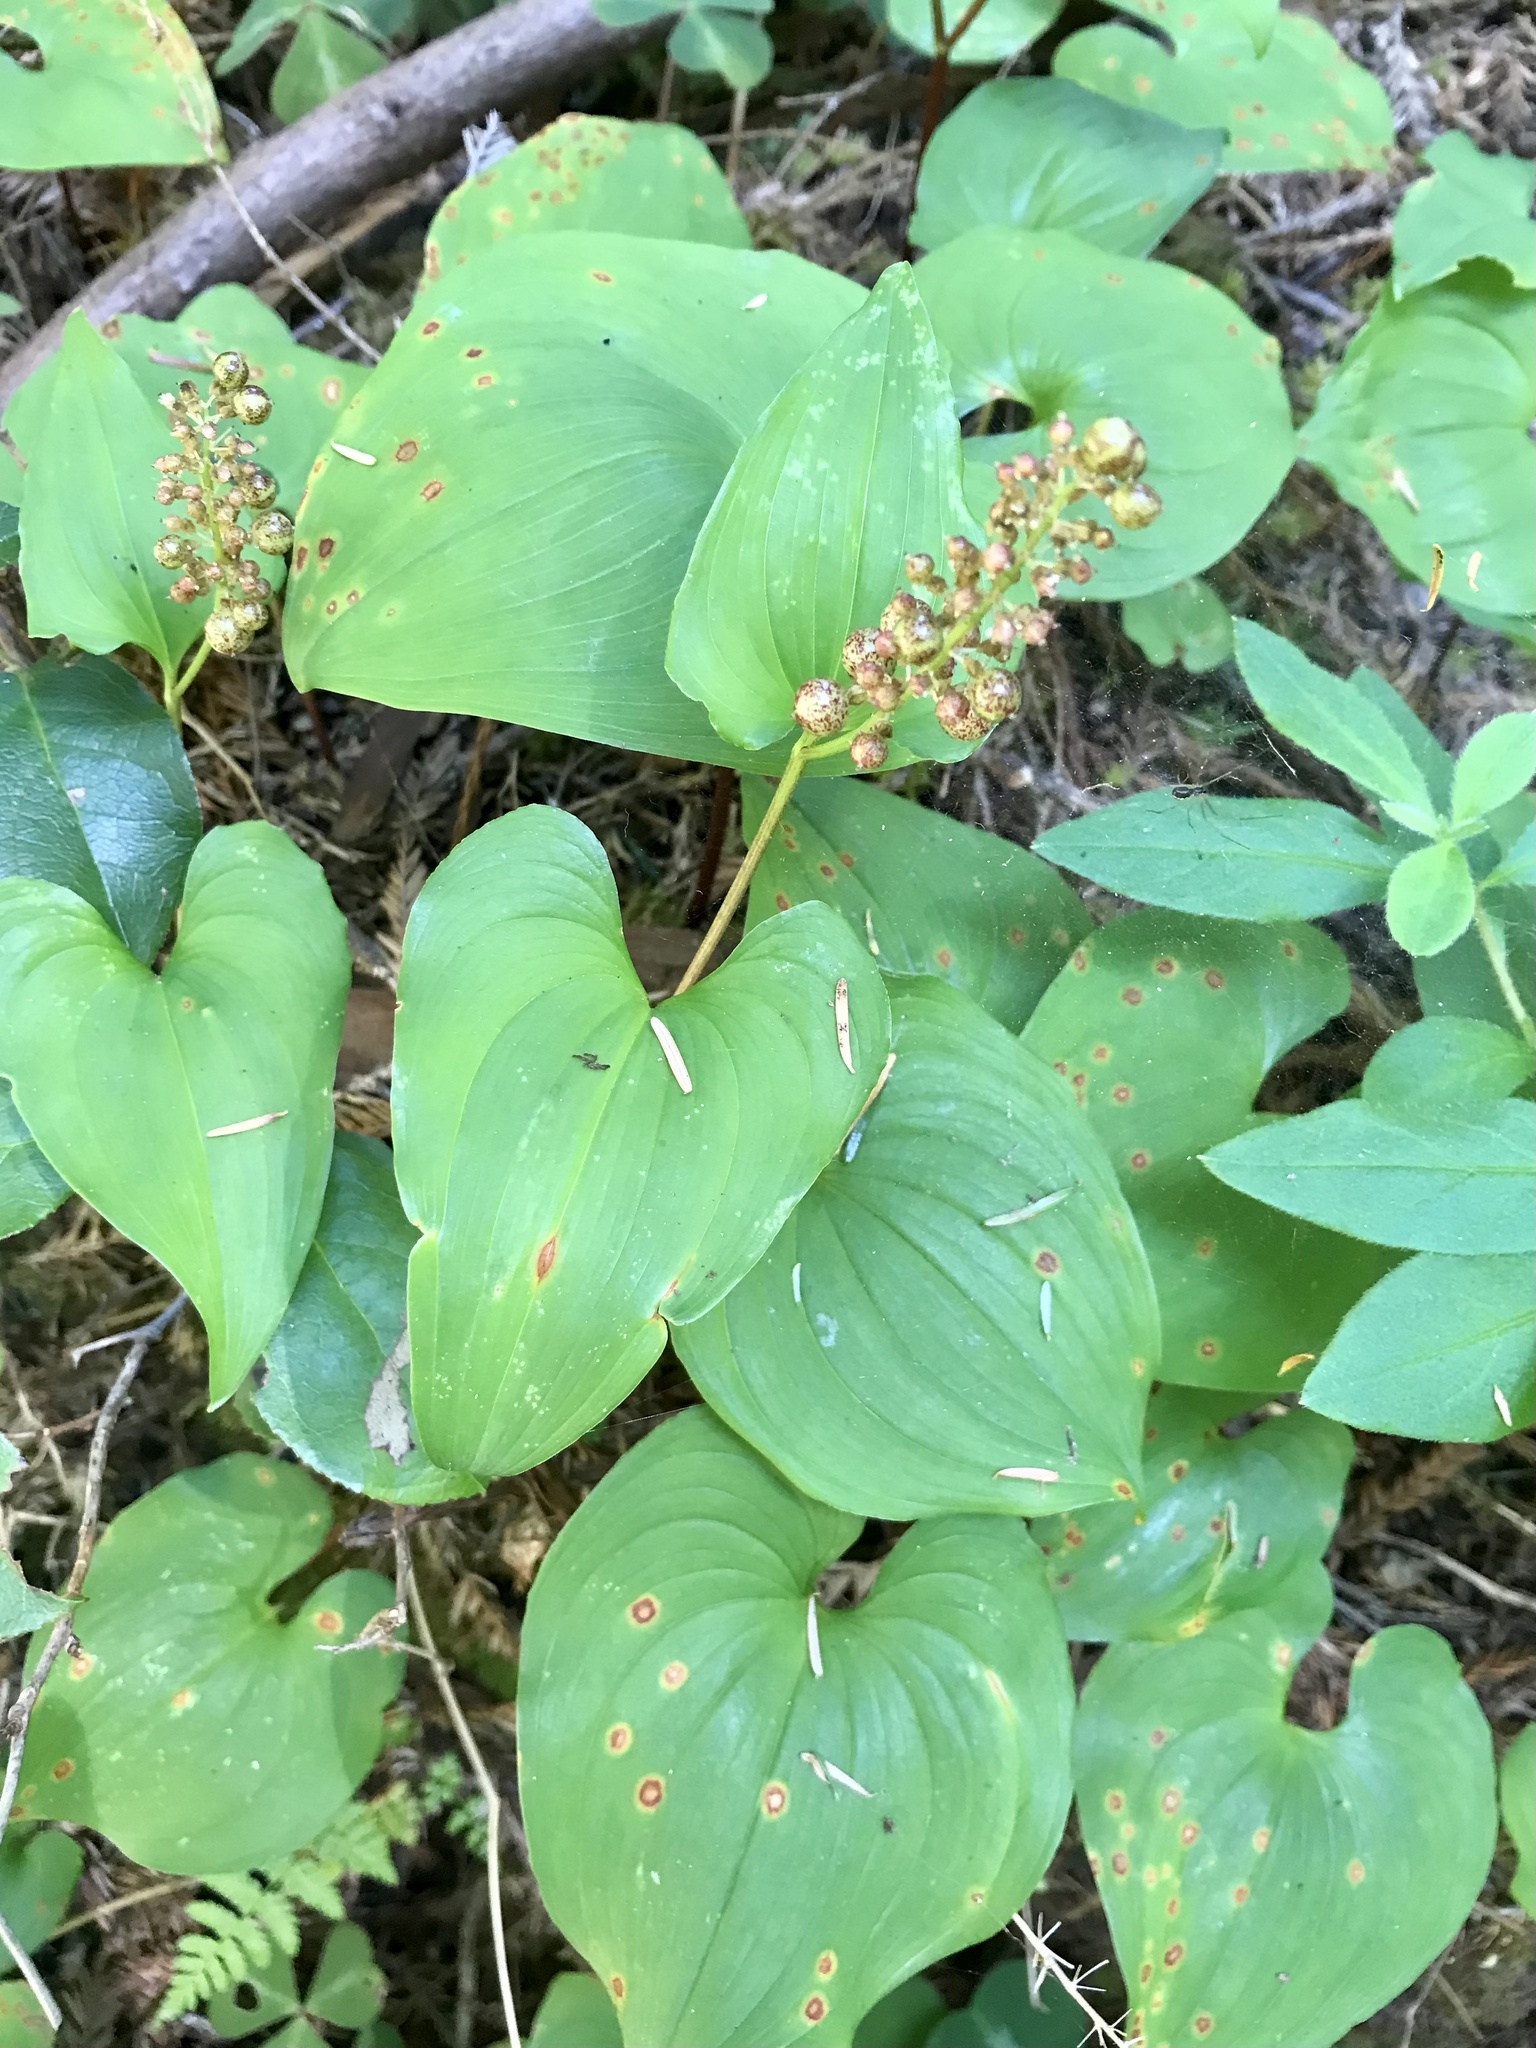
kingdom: Plantae
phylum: Tracheophyta
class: Liliopsida
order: Asparagales
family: Asparagaceae
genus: Maianthemum
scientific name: Maianthemum dilatatum
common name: False lily-of-the-valley
